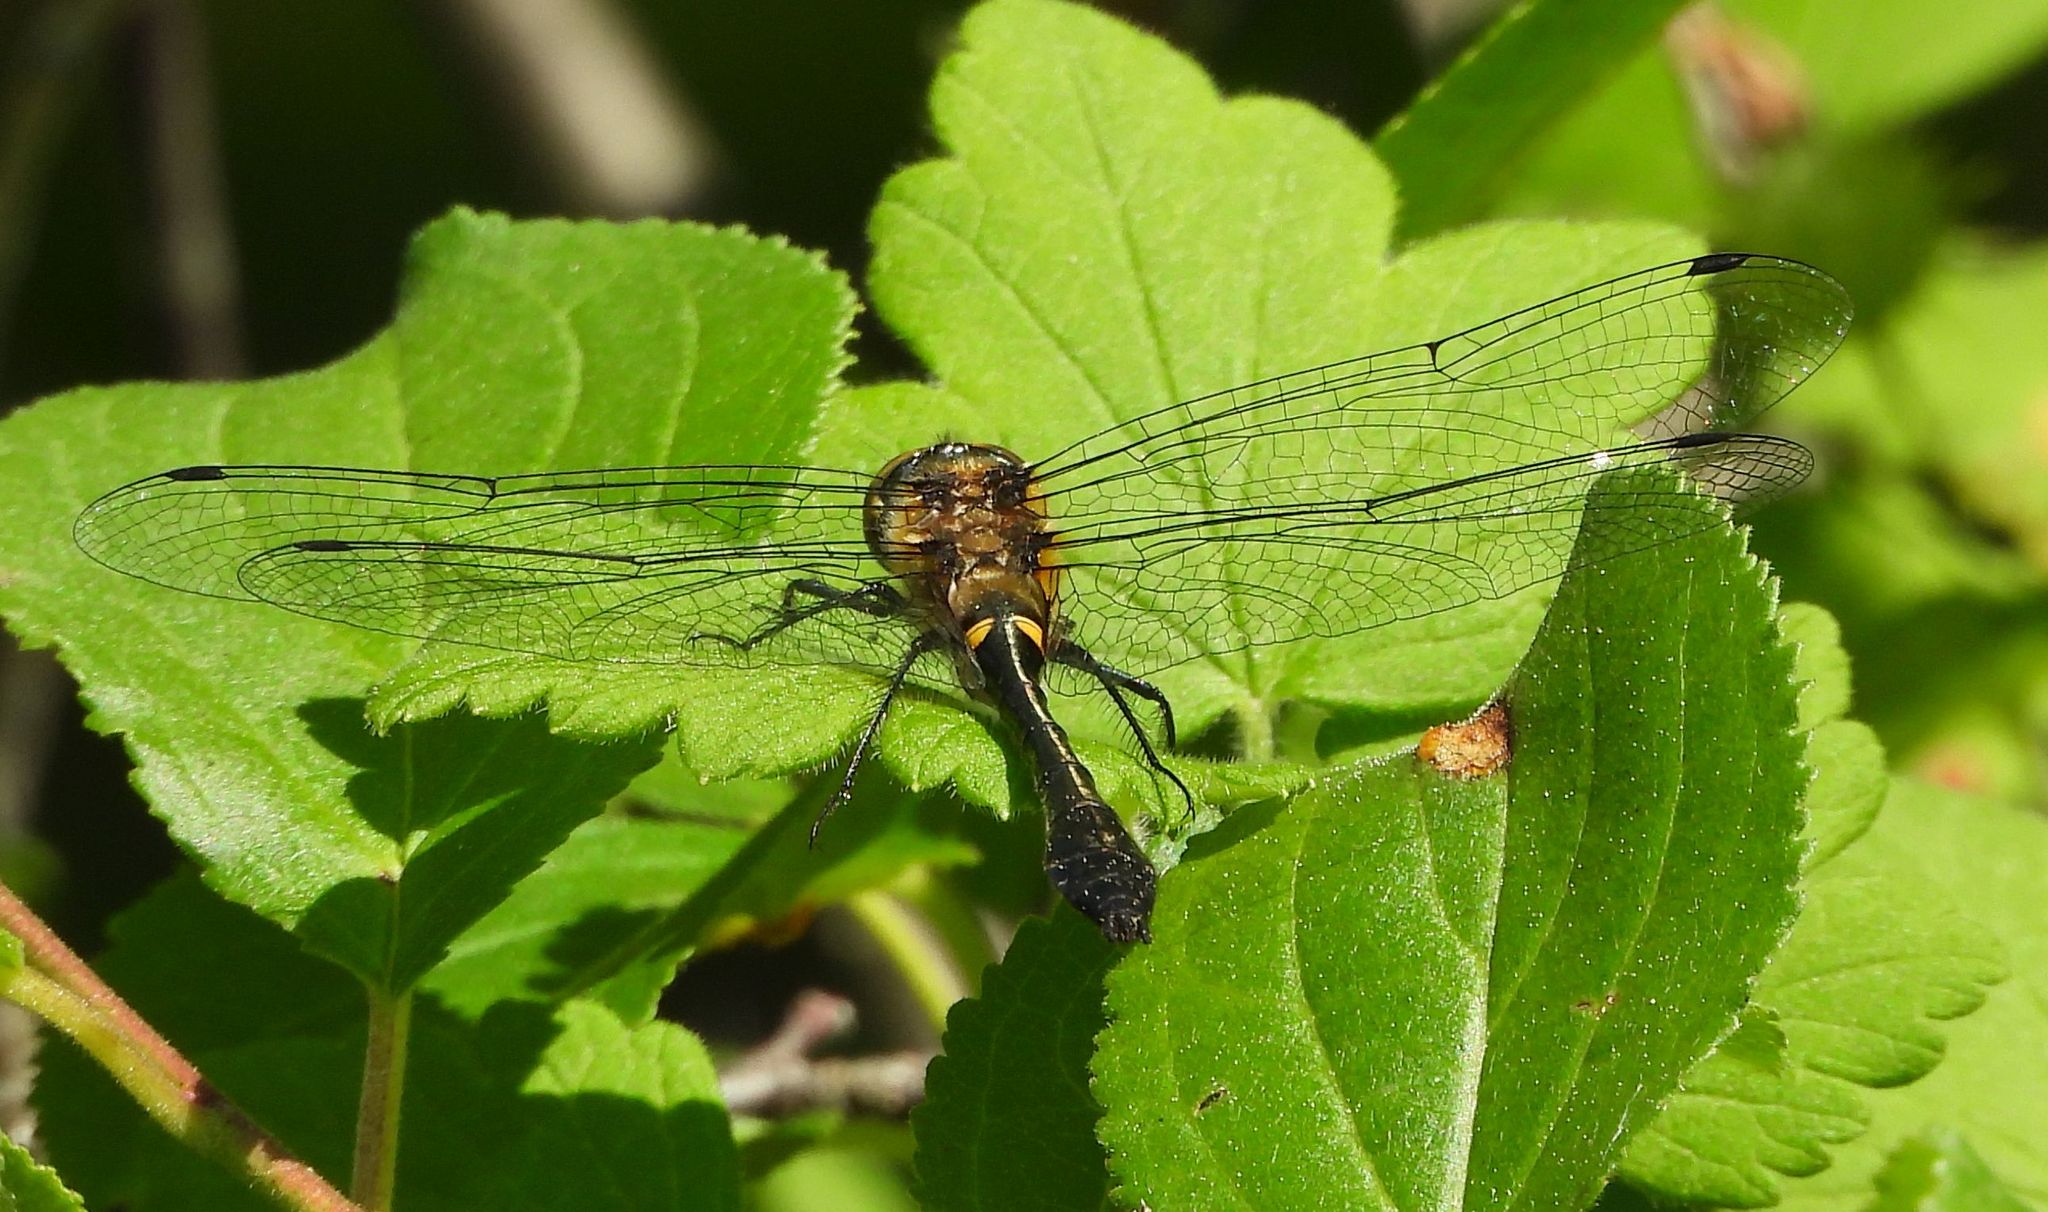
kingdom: Animalia
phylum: Arthropoda
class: Insecta
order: Odonata
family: Corduliidae
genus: Dorocordulia
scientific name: Dorocordulia libera
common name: Racket-tailed emerald
